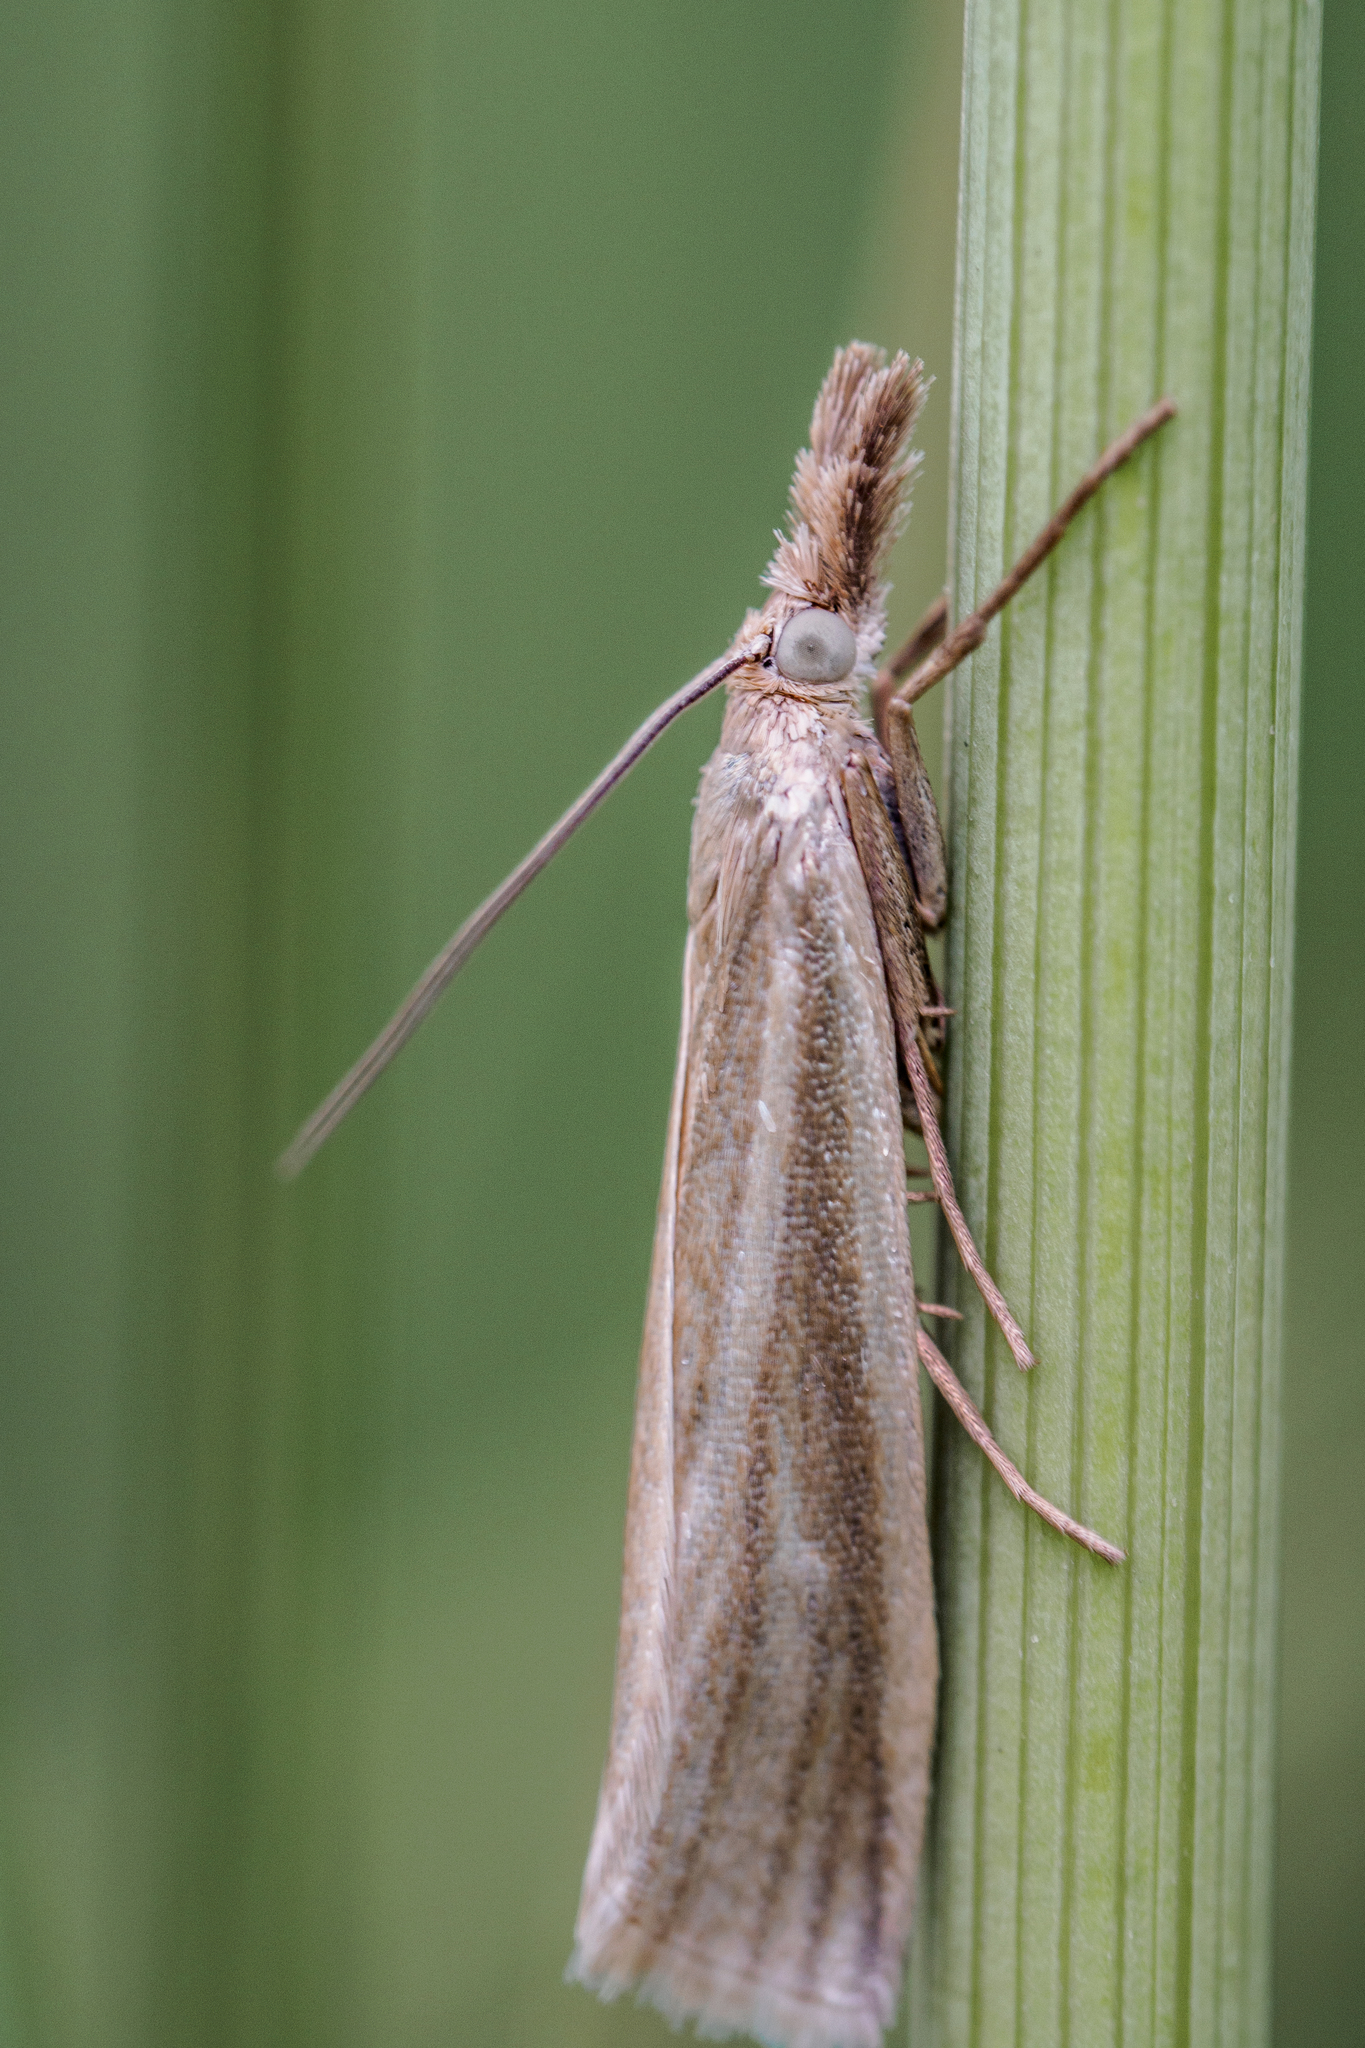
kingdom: Animalia
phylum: Arthropoda
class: Insecta
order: Lepidoptera
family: Crambidae
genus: Crambus
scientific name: Crambus perlellus
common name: Yellow satin veneer
